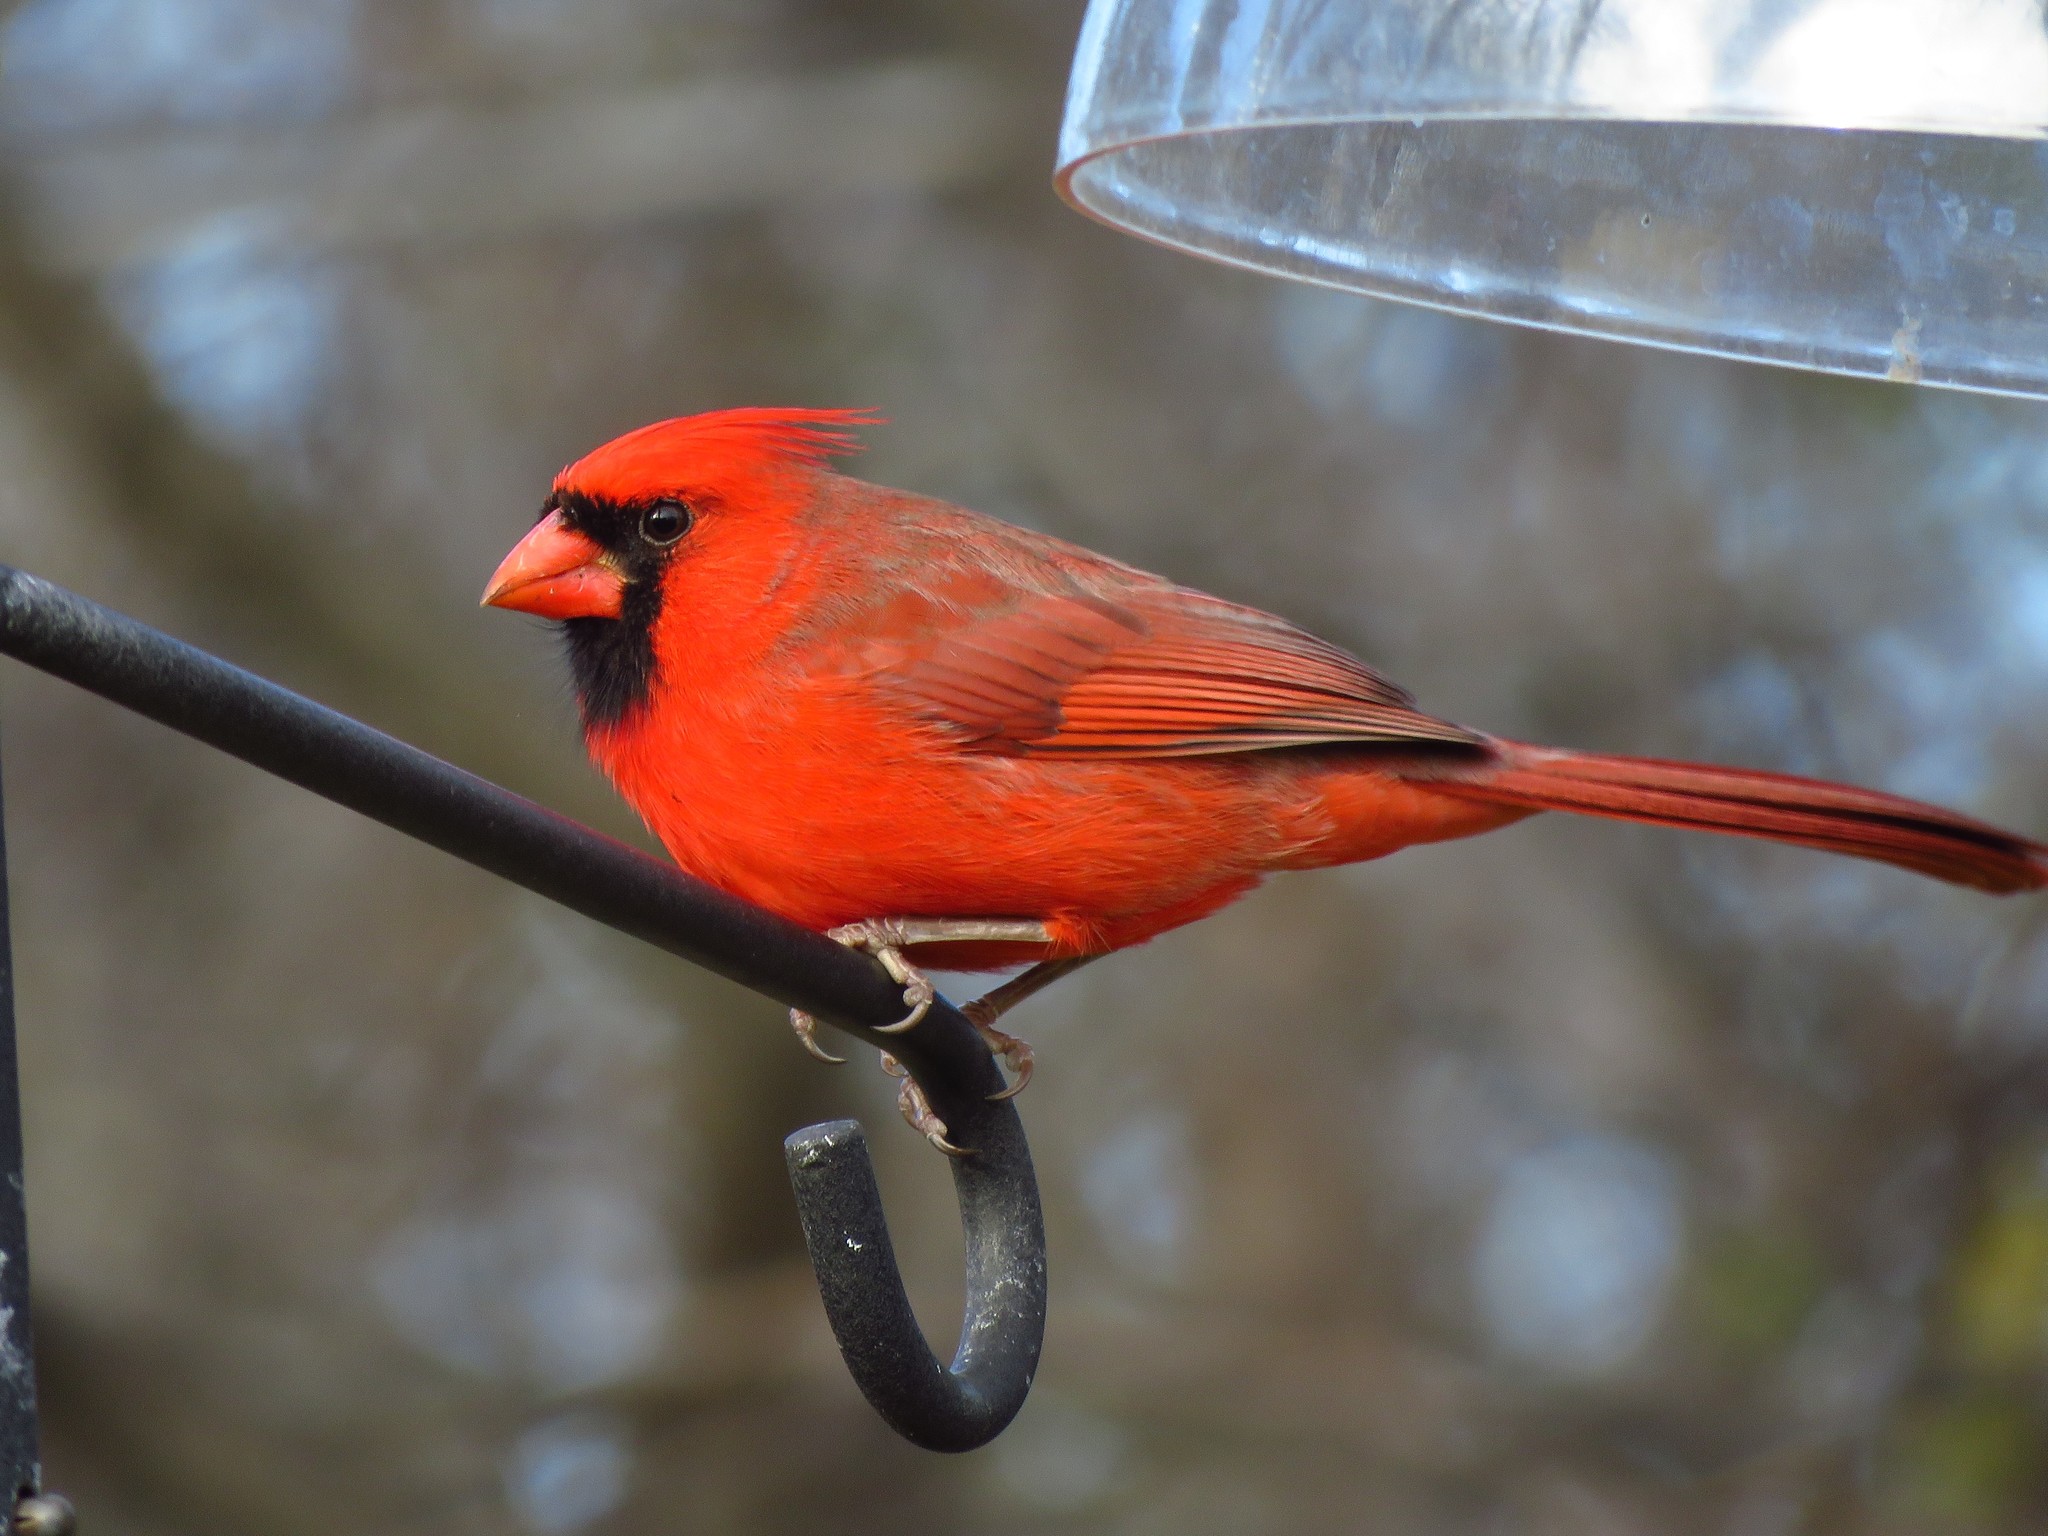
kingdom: Animalia
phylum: Chordata
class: Aves
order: Passeriformes
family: Cardinalidae
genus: Cardinalis
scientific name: Cardinalis cardinalis
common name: Northern cardinal
